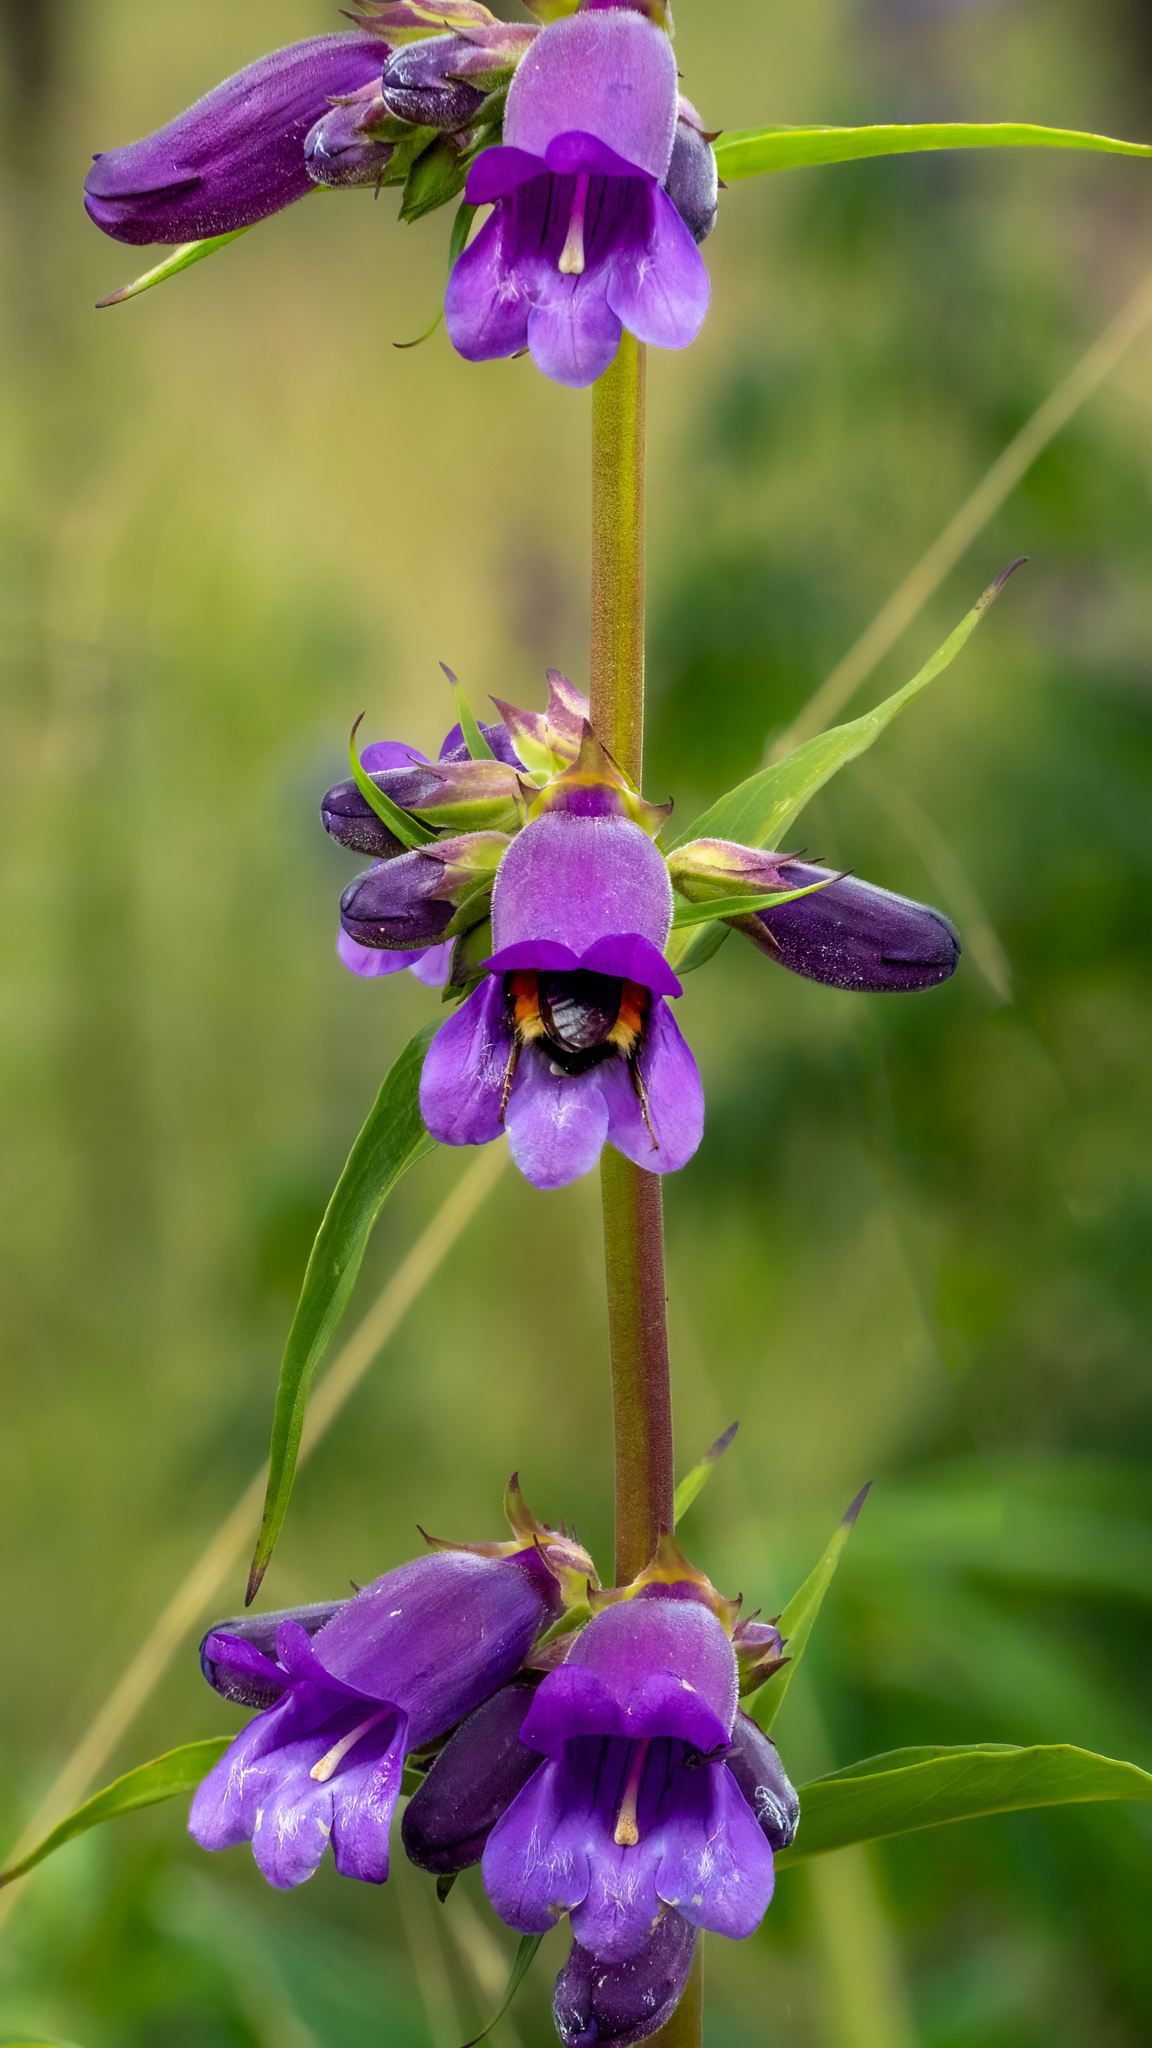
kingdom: Plantae
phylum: Tracheophyta
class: Magnoliopsida
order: Lamiales
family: Plantaginaceae
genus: Penstemon
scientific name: Penstemon gentianoides
